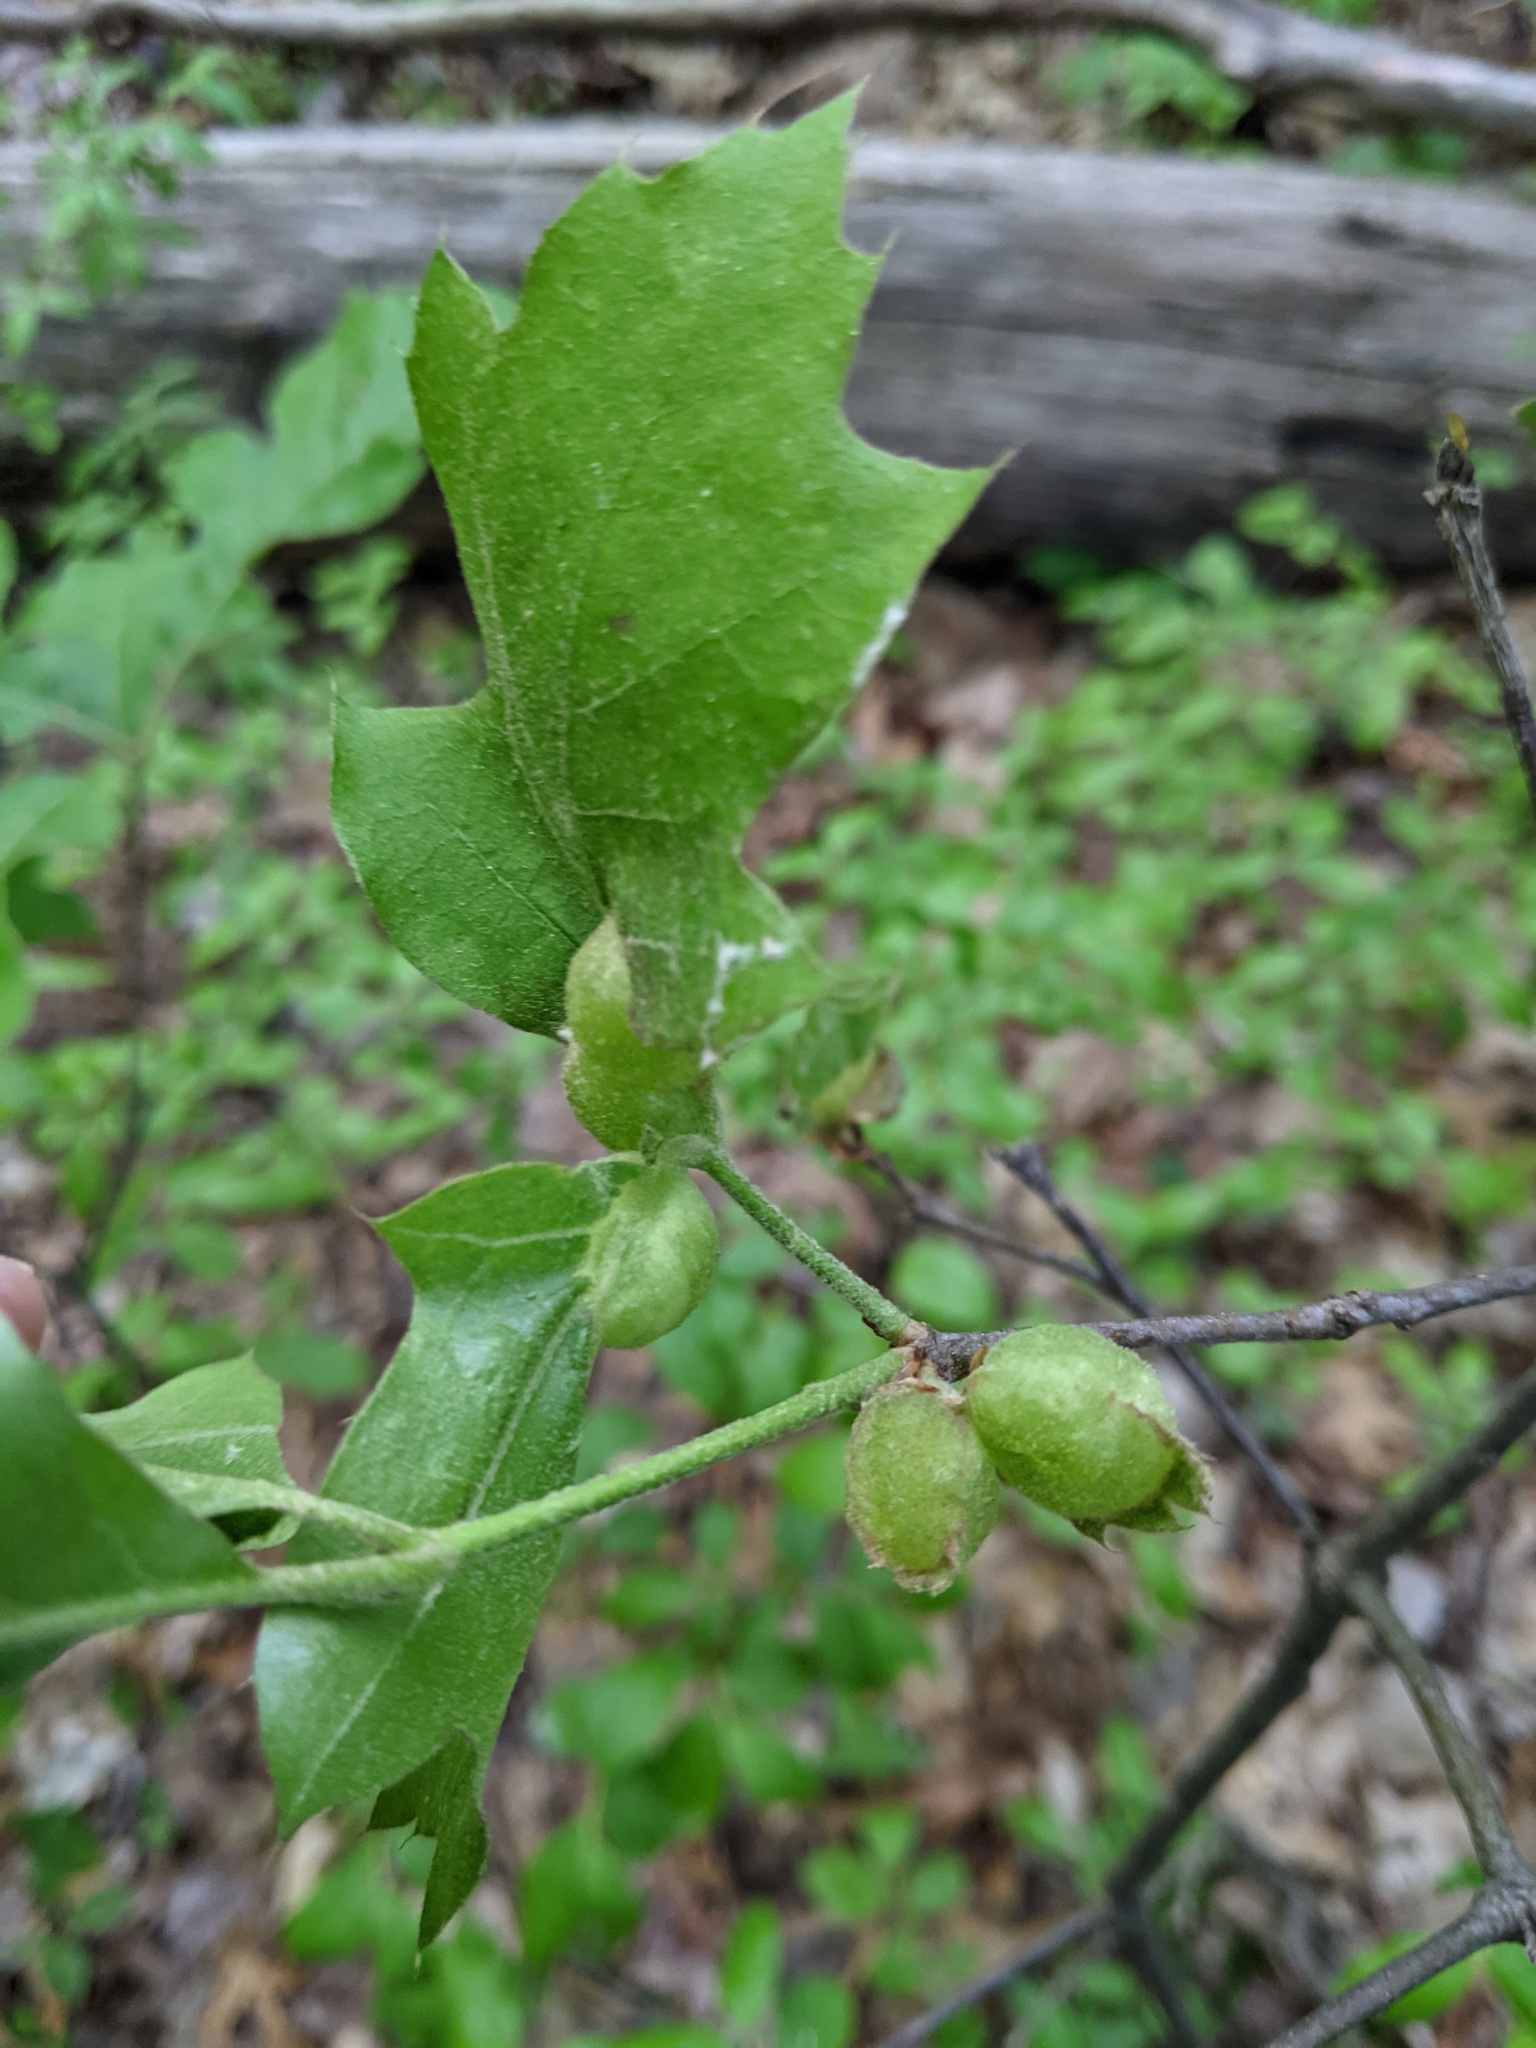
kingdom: Animalia
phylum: Arthropoda
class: Insecta
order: Hymenoptera
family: Cynipidae
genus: Dryocosmus
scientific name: Dryocosmus quercuspalustris
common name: Succulent oak gall wasp
